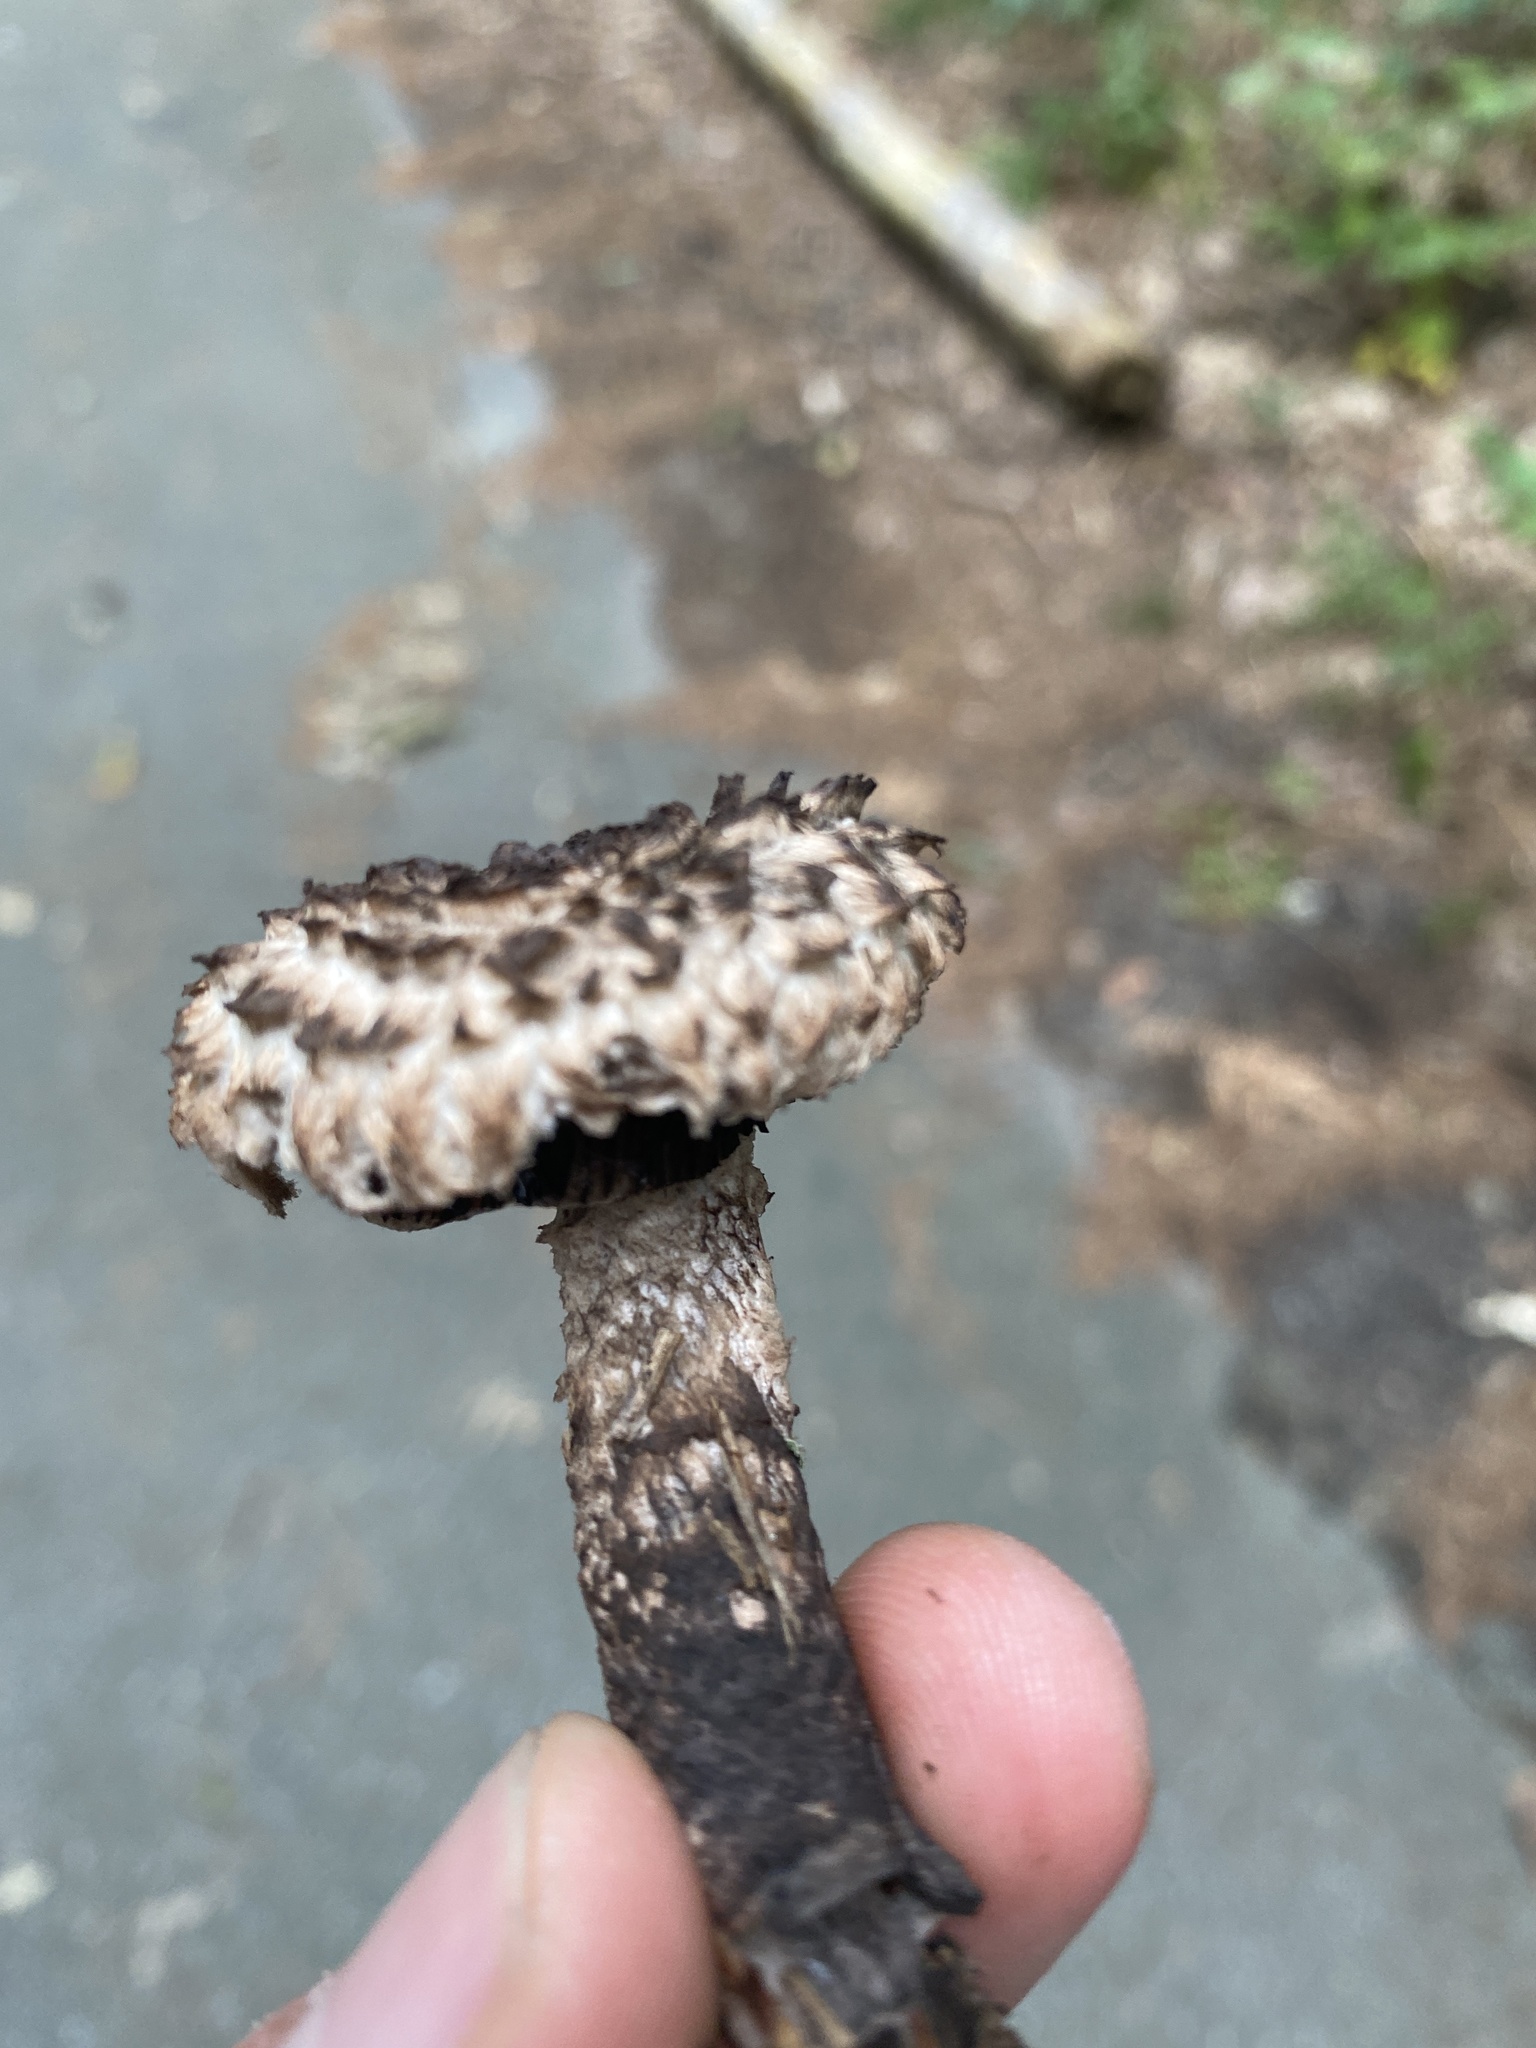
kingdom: Fungi
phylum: Basidiomycota
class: Agaricomycetes
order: Boletales
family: Boletaceae
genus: Strobilomyces
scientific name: Strobilomyces strobilaceus
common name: Old man of the woods
